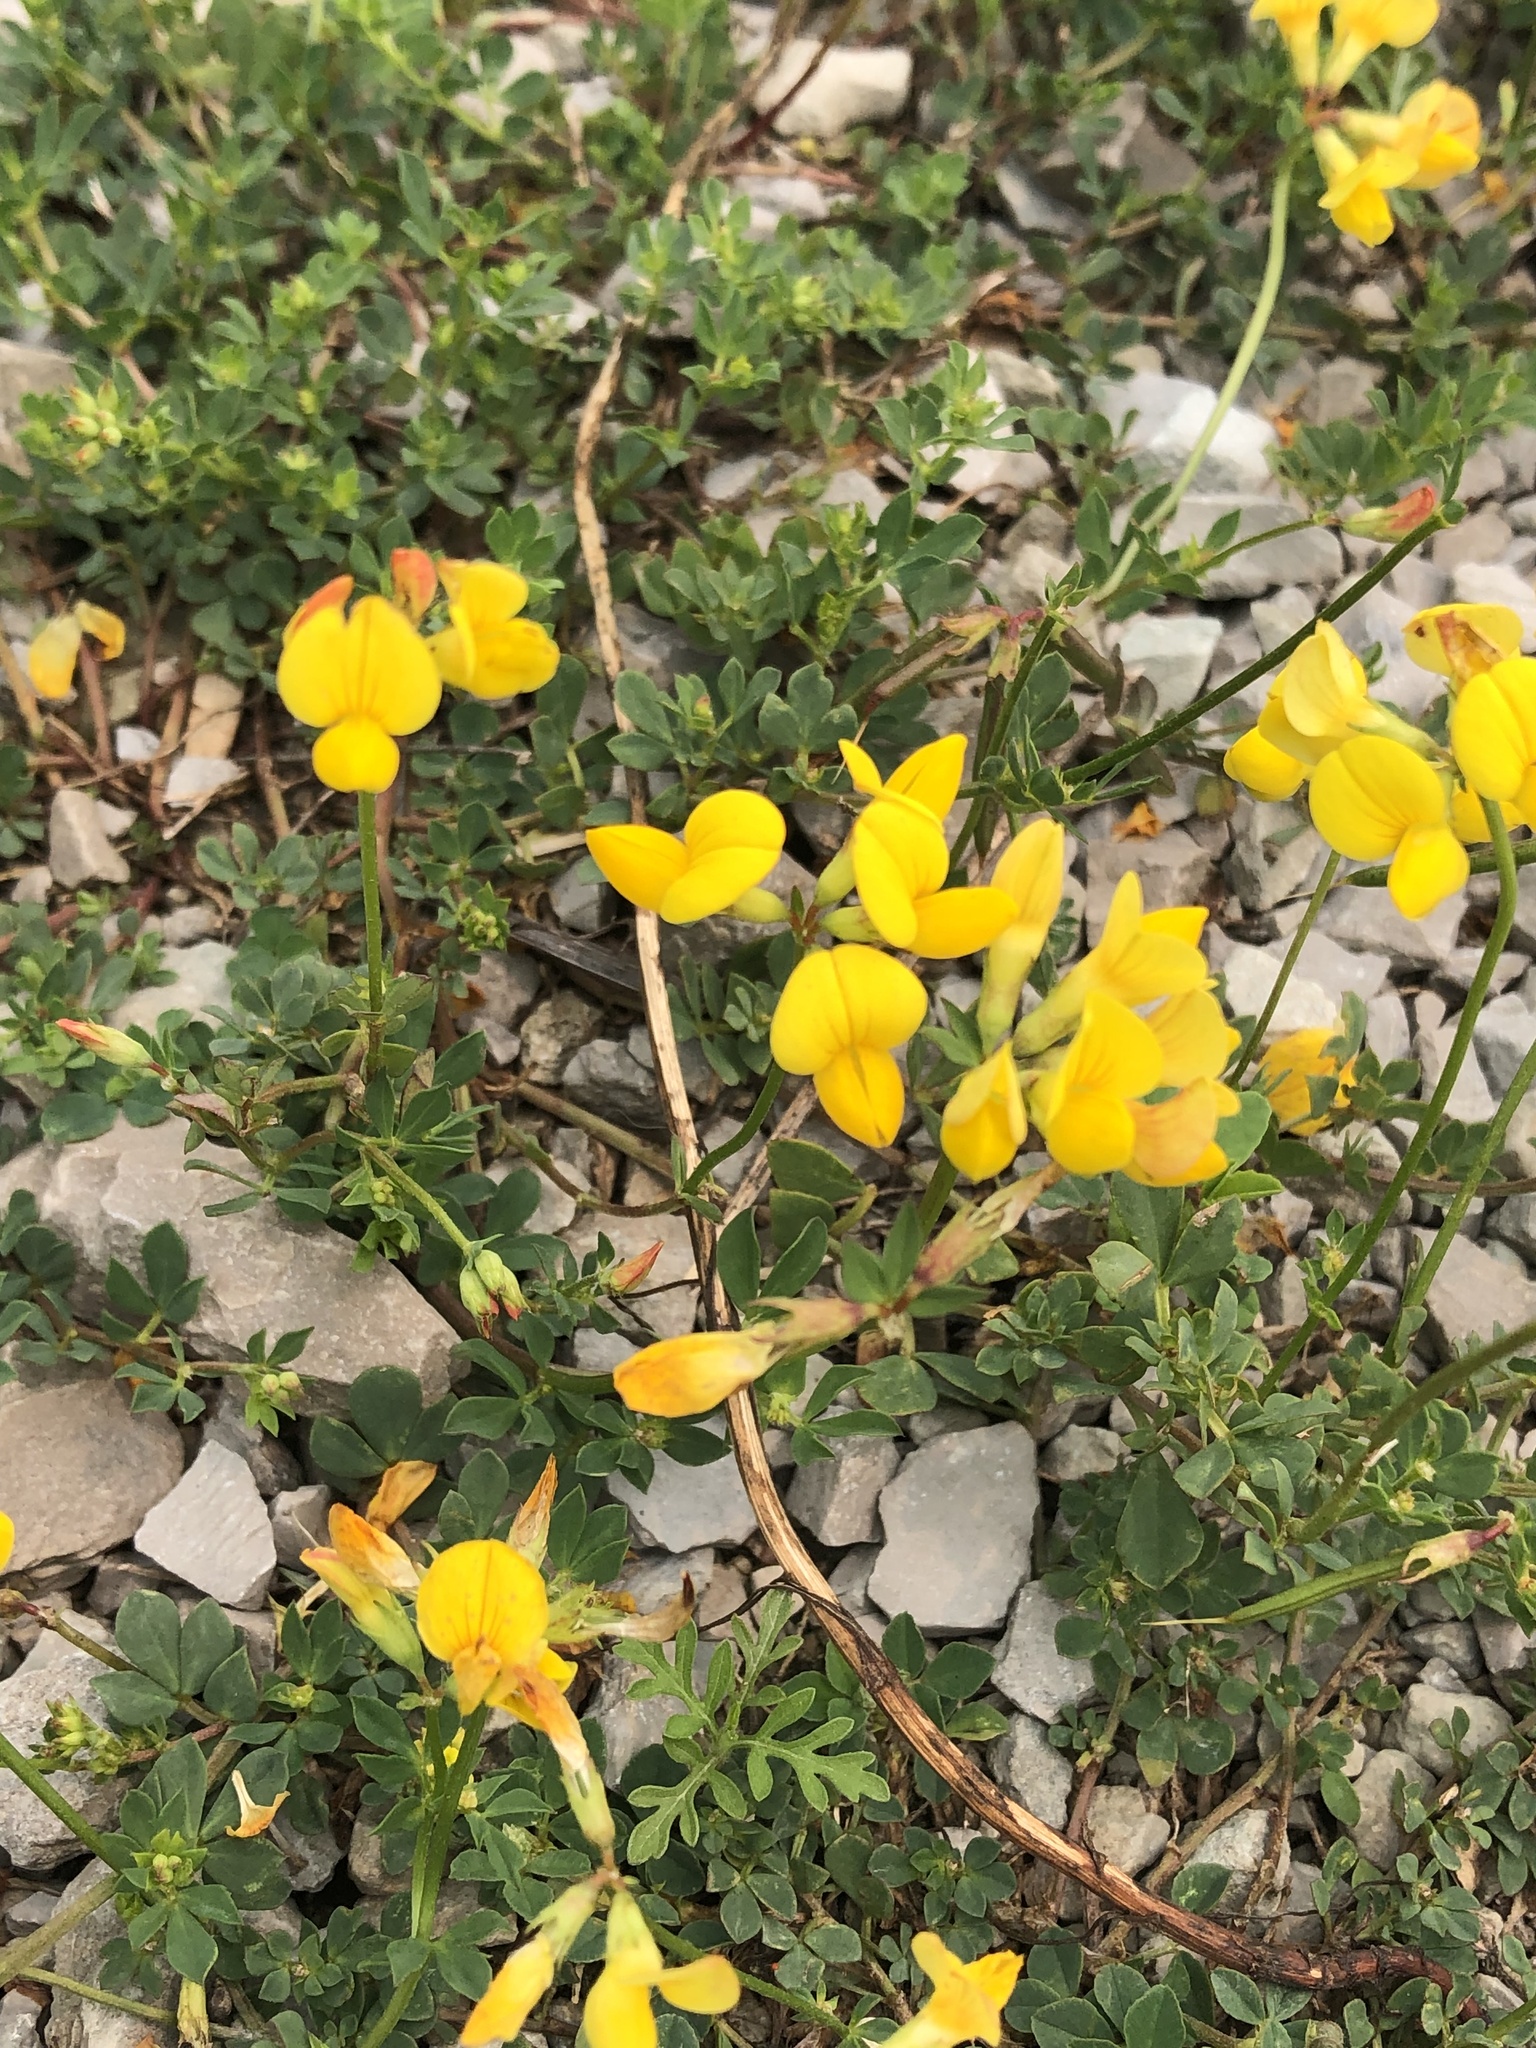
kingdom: Plantae
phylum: Tracheophyta
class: Magnoliopsida
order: Fabales
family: Fabaceae
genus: Lotus
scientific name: Lotus corniculatus
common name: Common bird's-foot-trefoil
